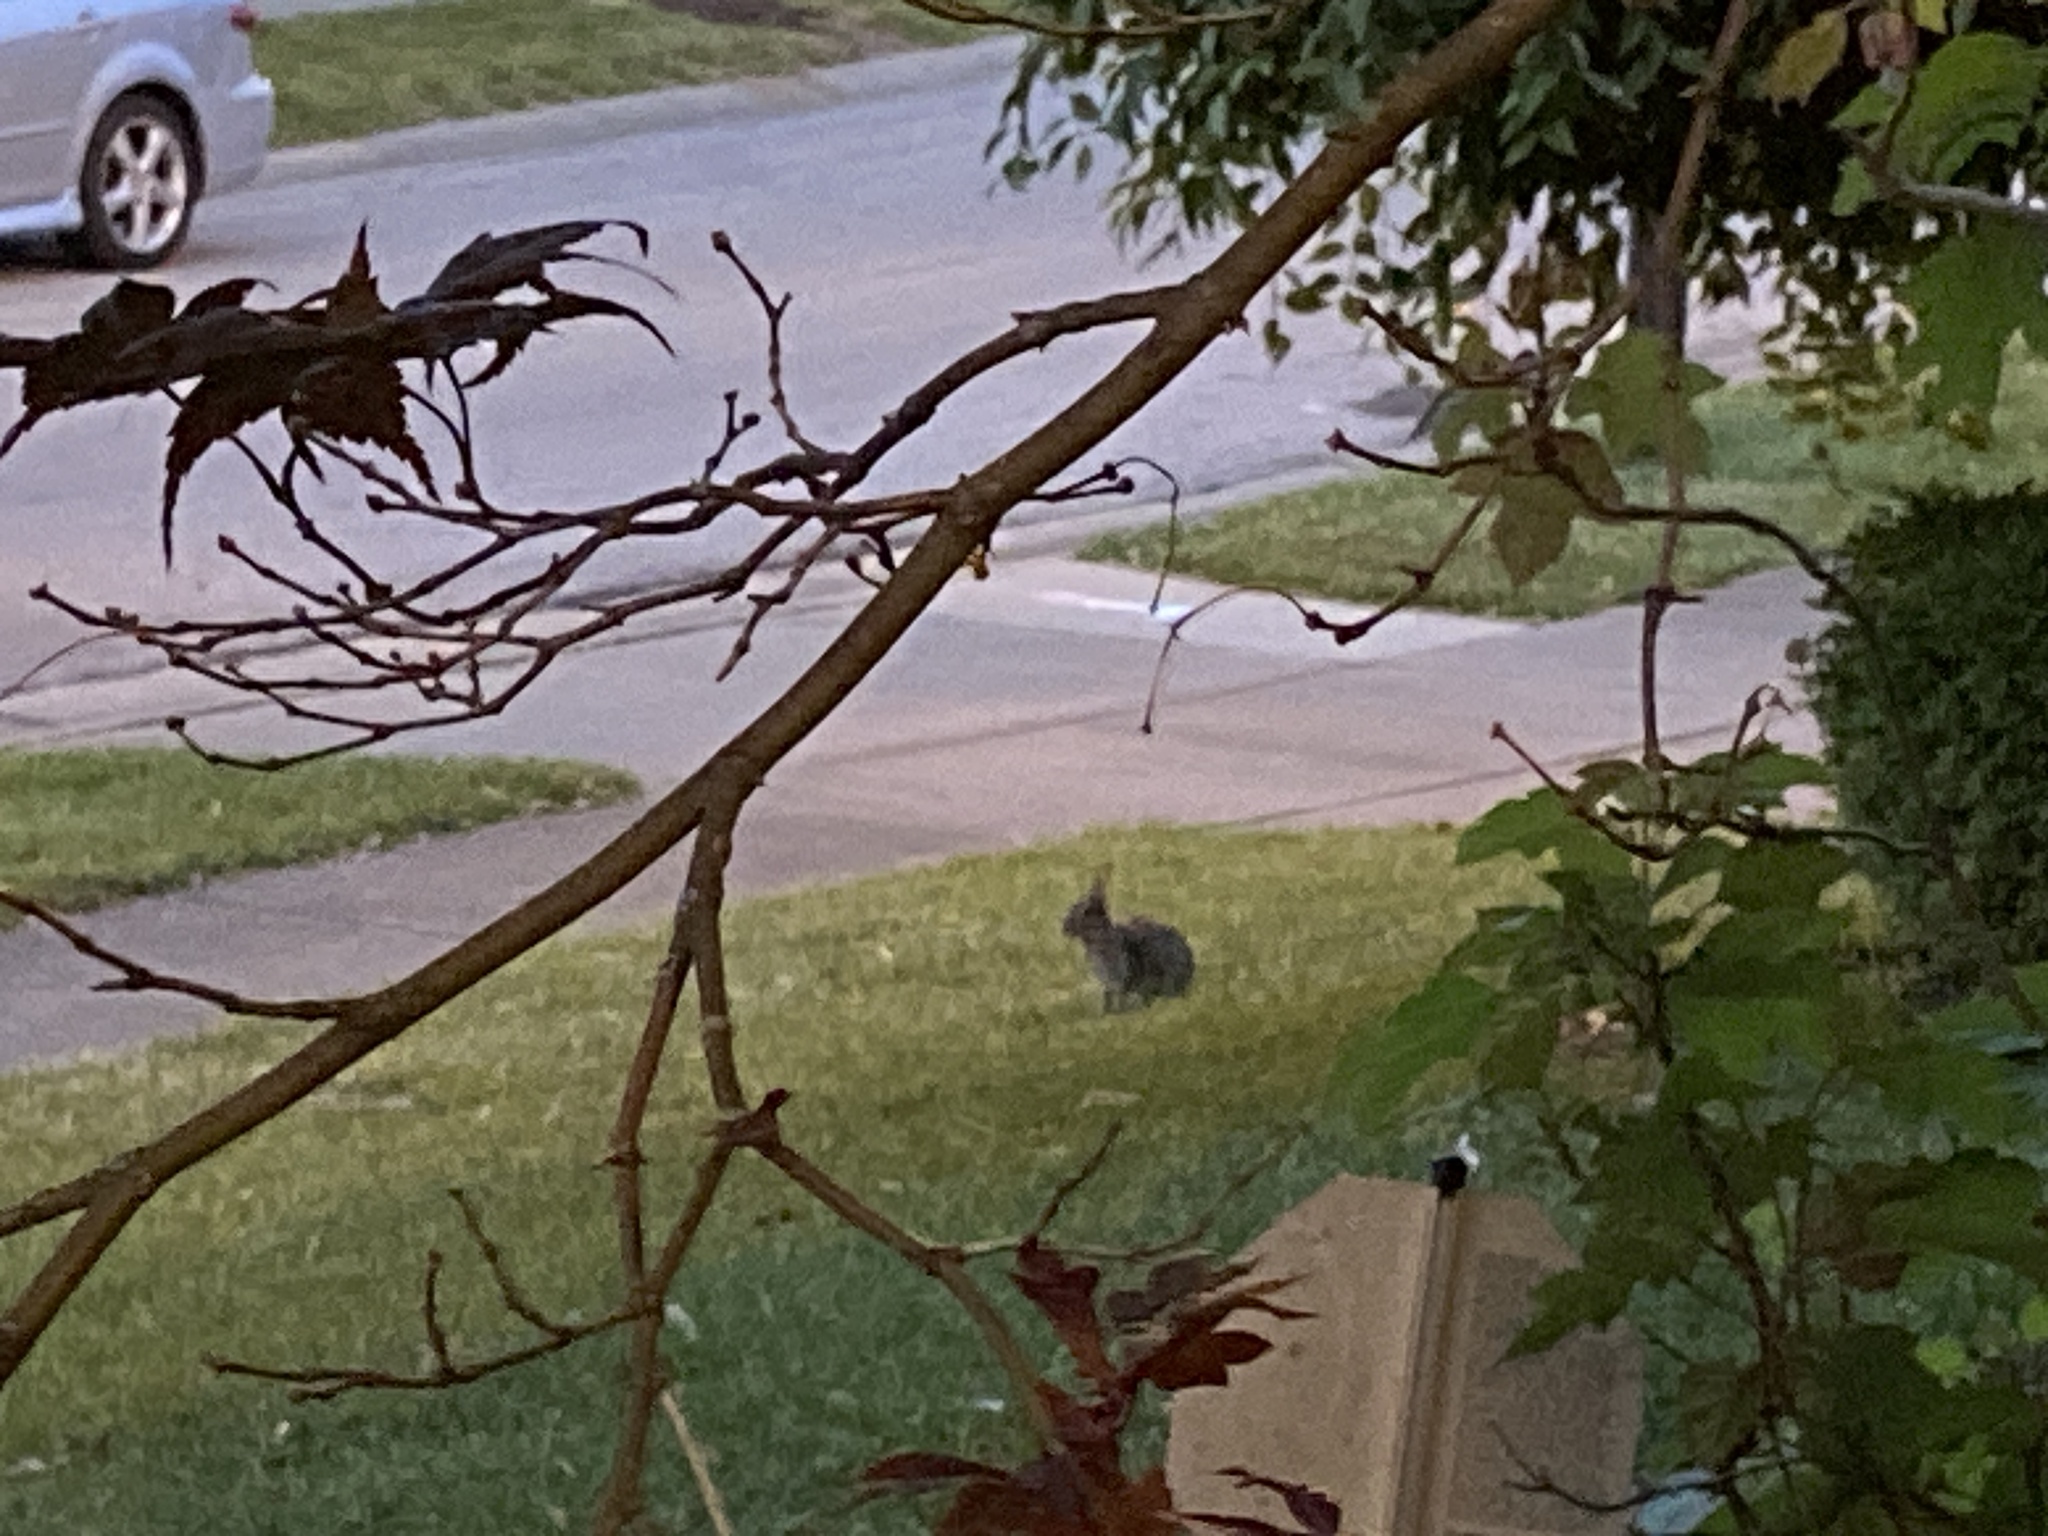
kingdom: Animalia
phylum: Chordata
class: Mammalia
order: Lagomorpha
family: Leporidae
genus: Sylvilagus
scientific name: Sylvilagus floridanus
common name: Eastern cottontail
